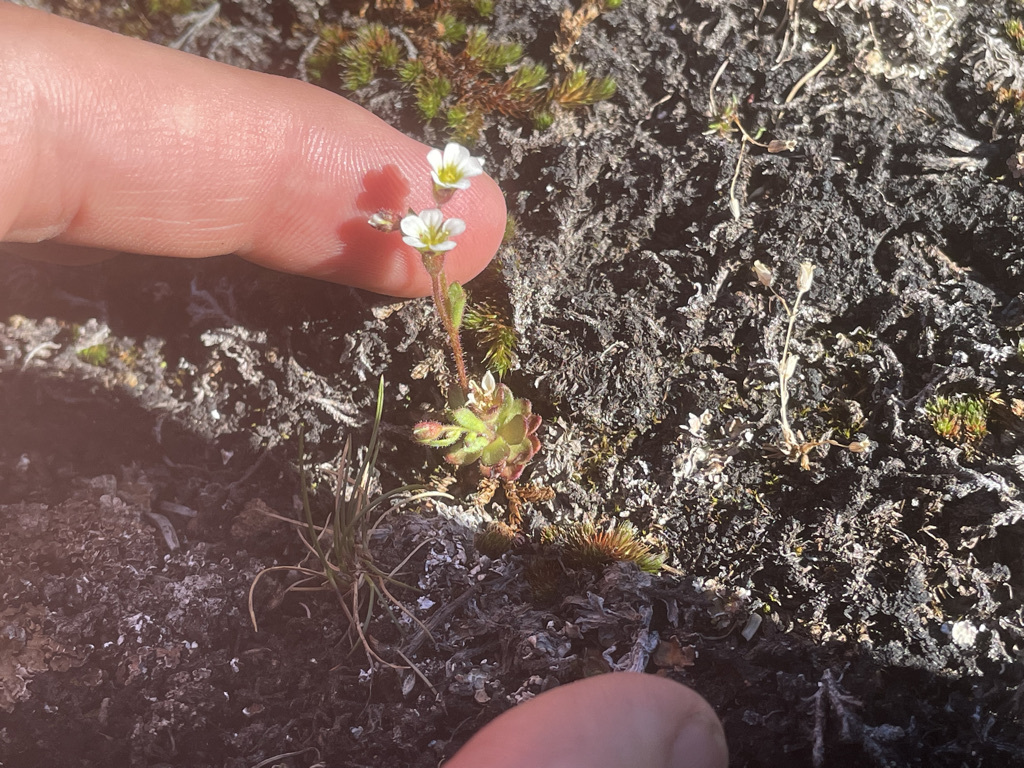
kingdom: Plantae
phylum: Tracheophyta
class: Magnoliopsida
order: Saxifragales
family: Saxifragaceae
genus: Saxifraga
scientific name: Saxifraga adscendens
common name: Ascending saxifrage
